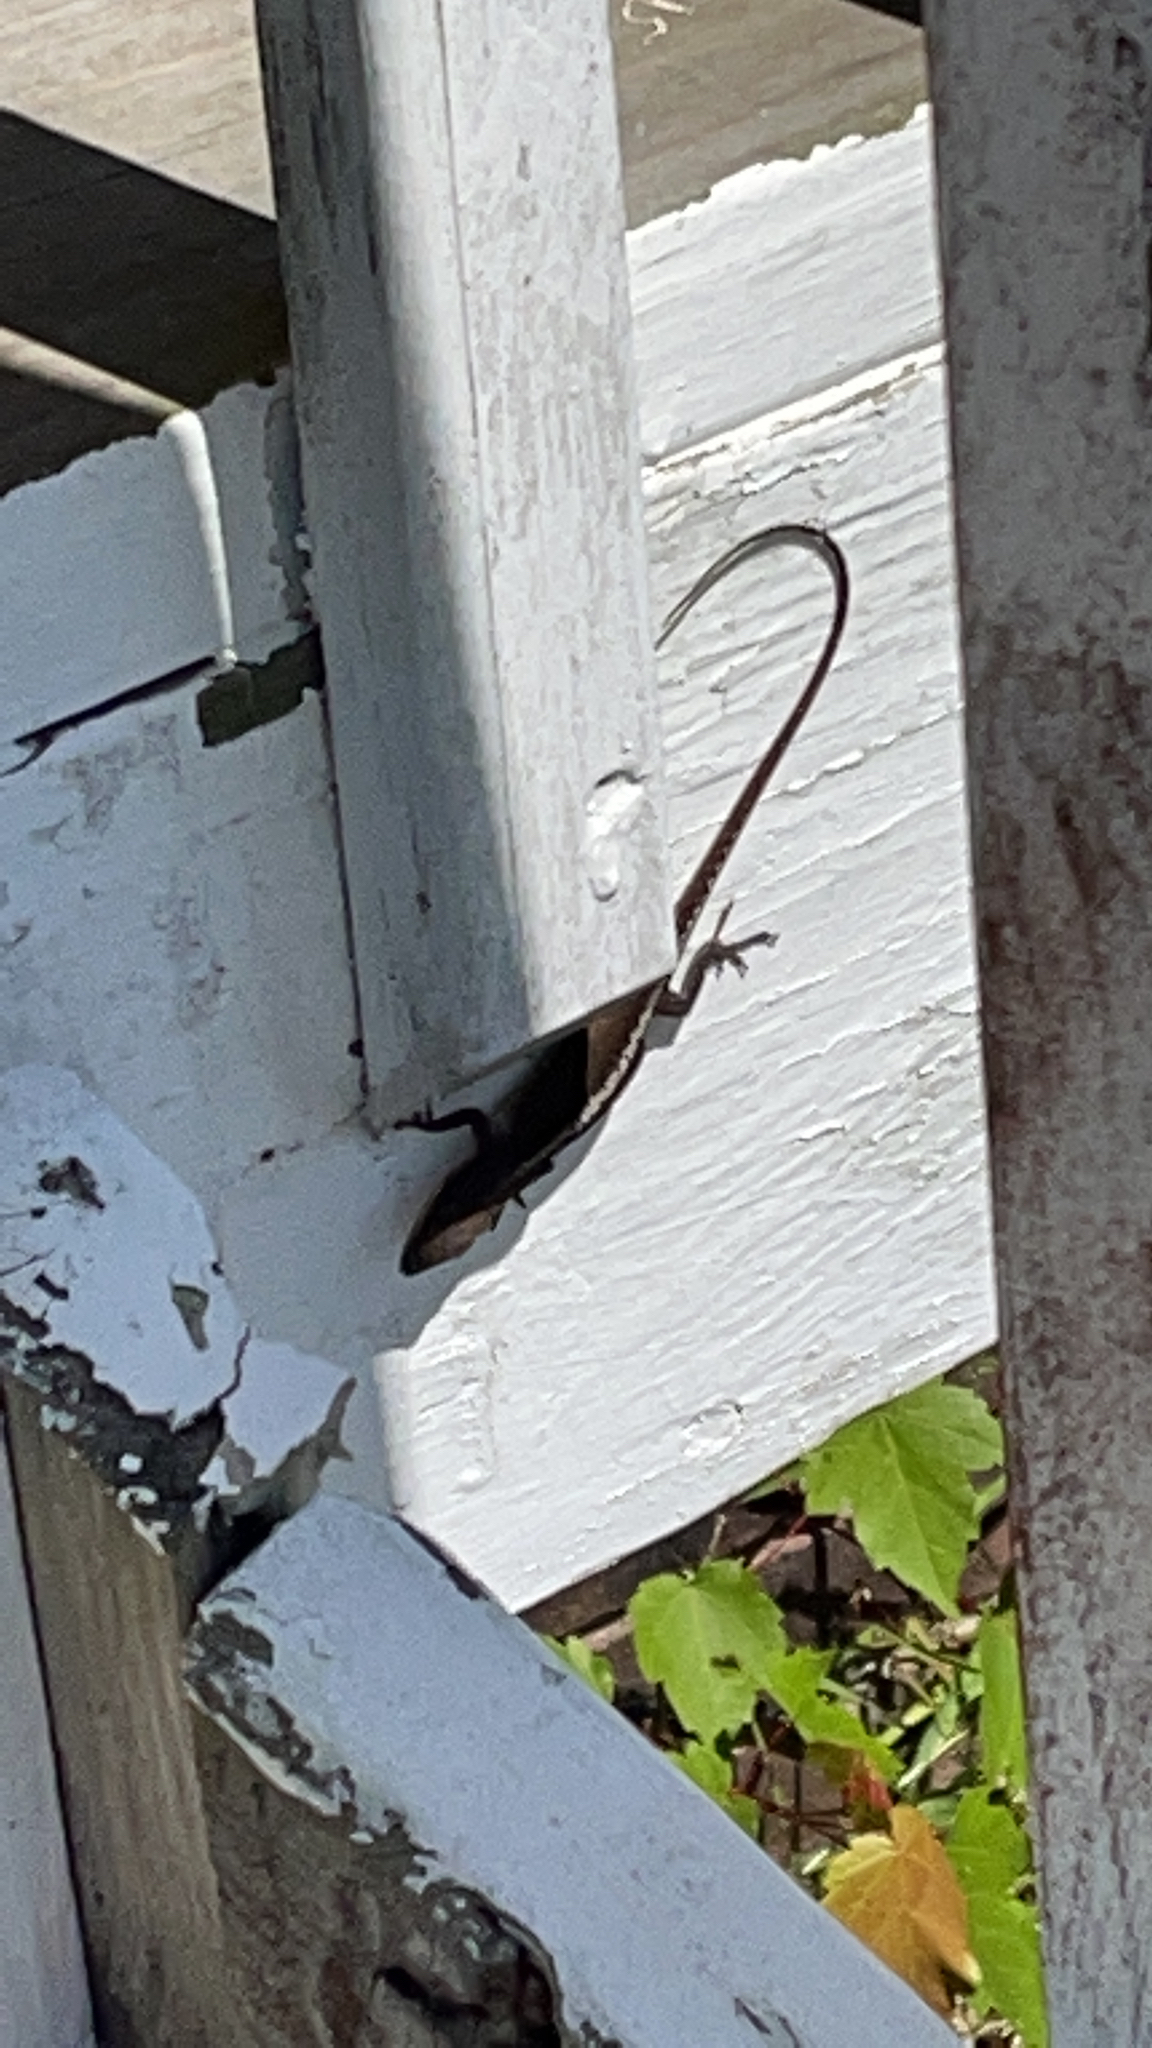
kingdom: Animalia
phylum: Chordata
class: Squamata
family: Dactyloidae
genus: Anolis
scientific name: Anolis carolinensis
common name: Green anole
